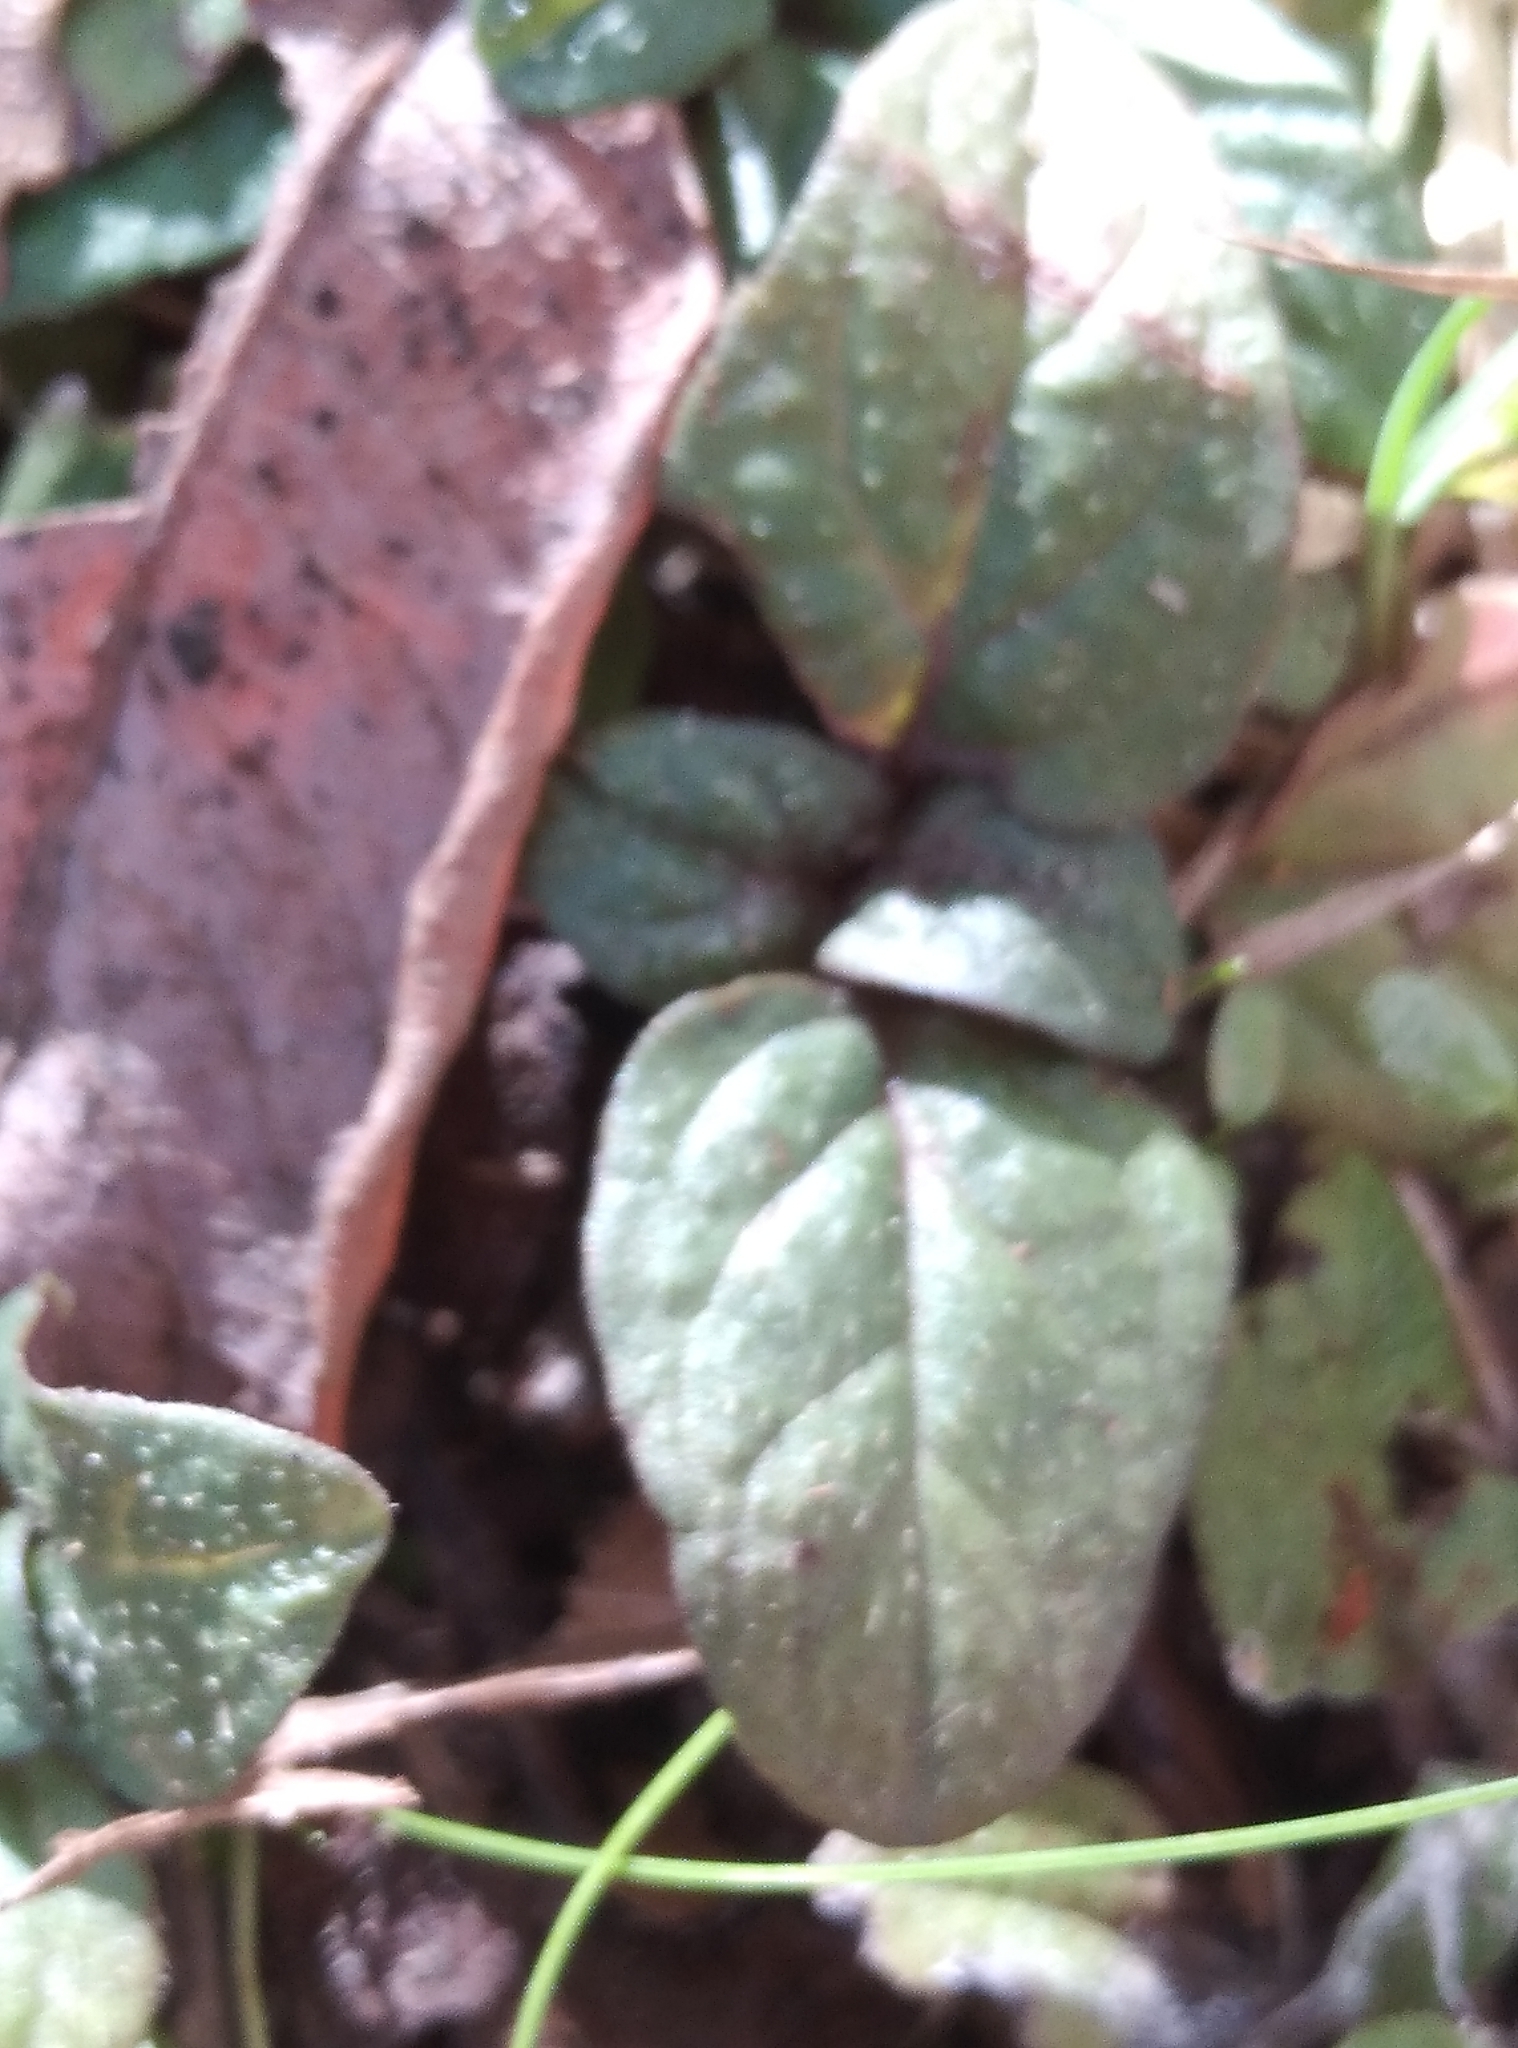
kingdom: Plantae
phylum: Tracheophyta
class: Magnoliopsida
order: Lamiales
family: Lamiaceae
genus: Prunella
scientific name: Prunella vulgaris
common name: Heal-all
